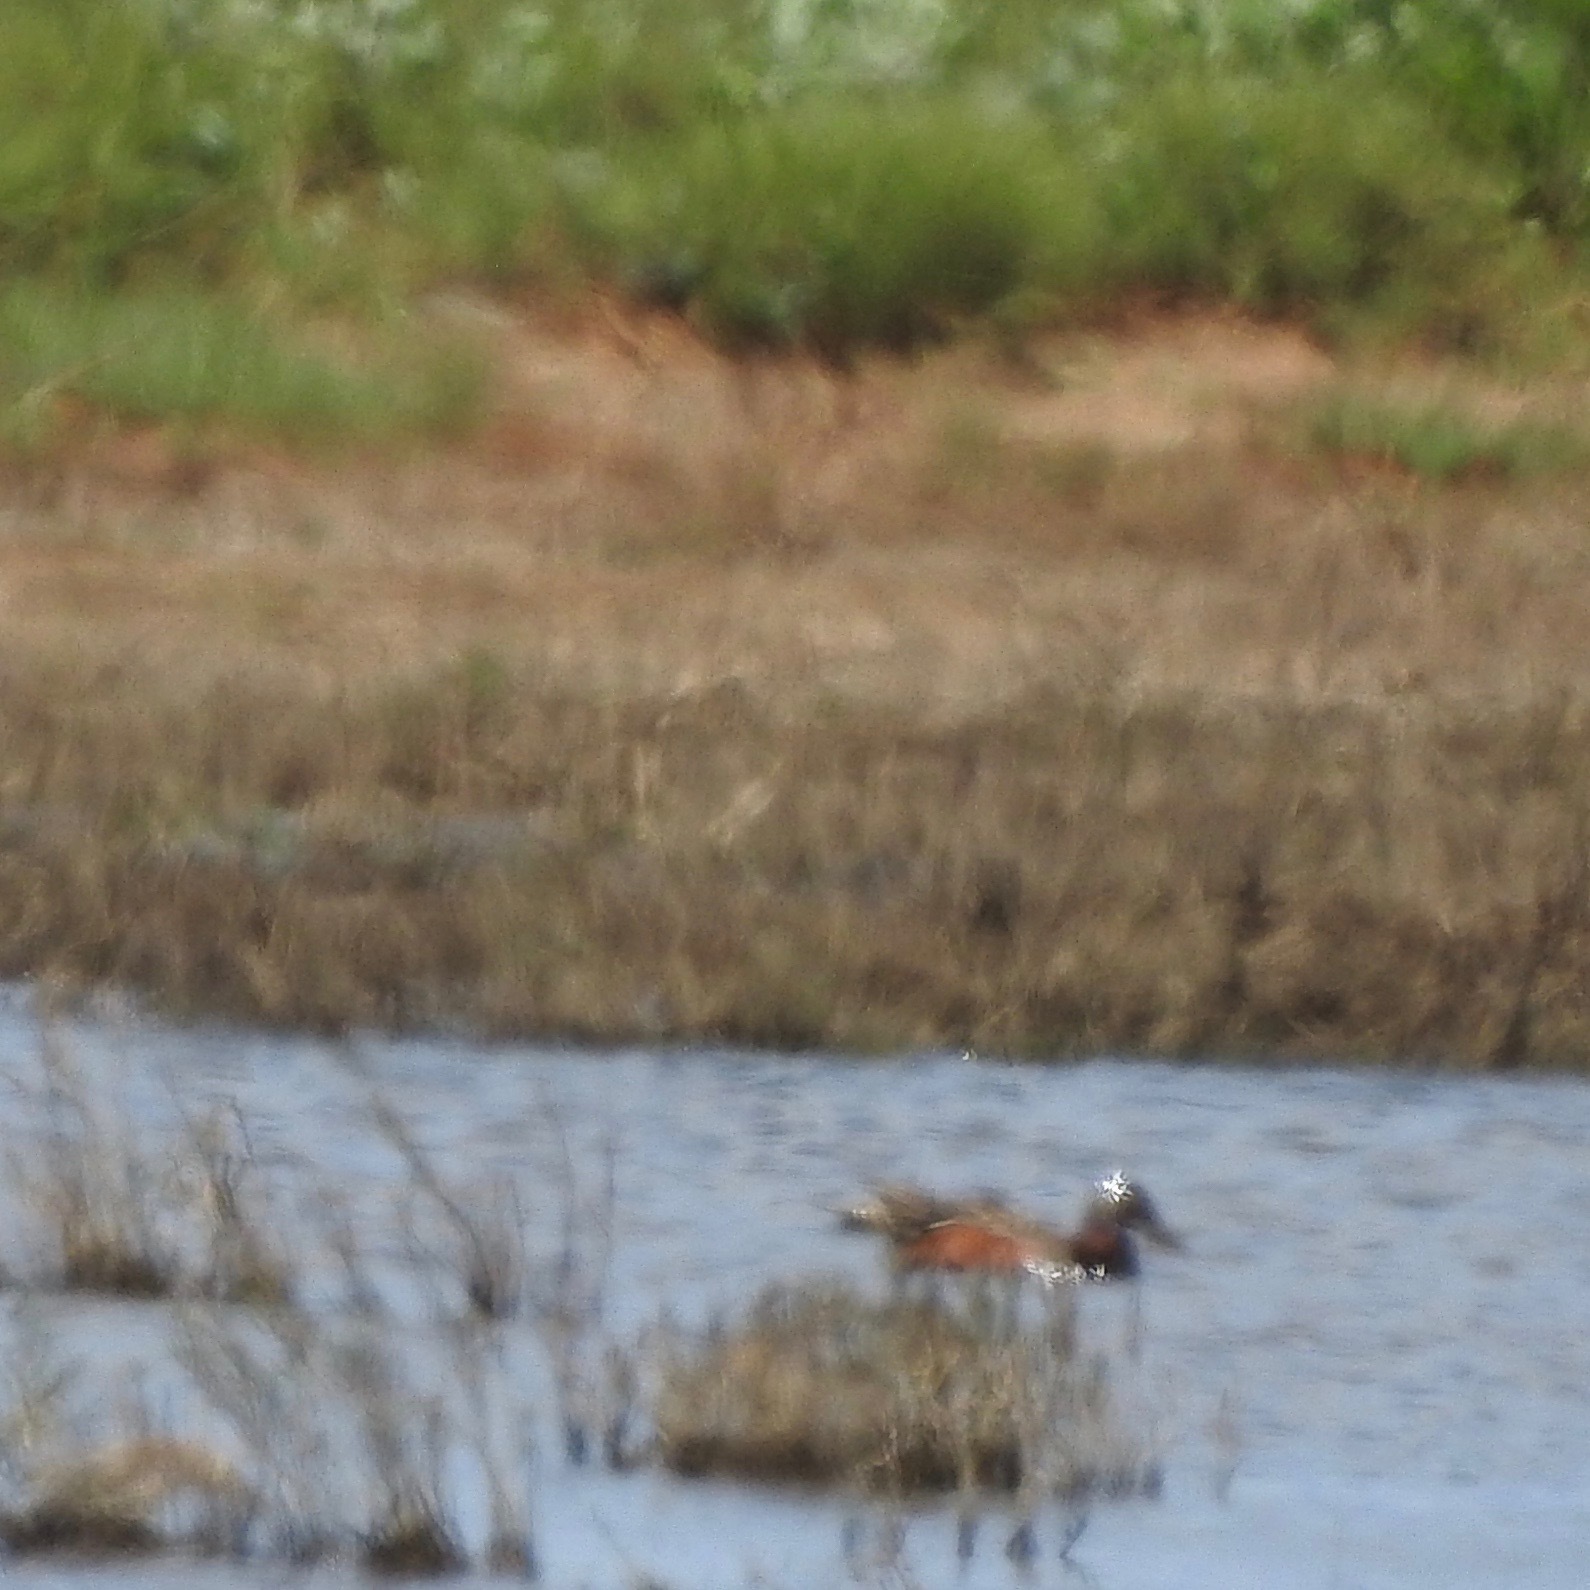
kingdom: Animalia
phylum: Chordata
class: Aves
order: Anseriformes
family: Anatidae
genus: Spatula
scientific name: Spatula cyanoptera
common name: Cinnamon teal
